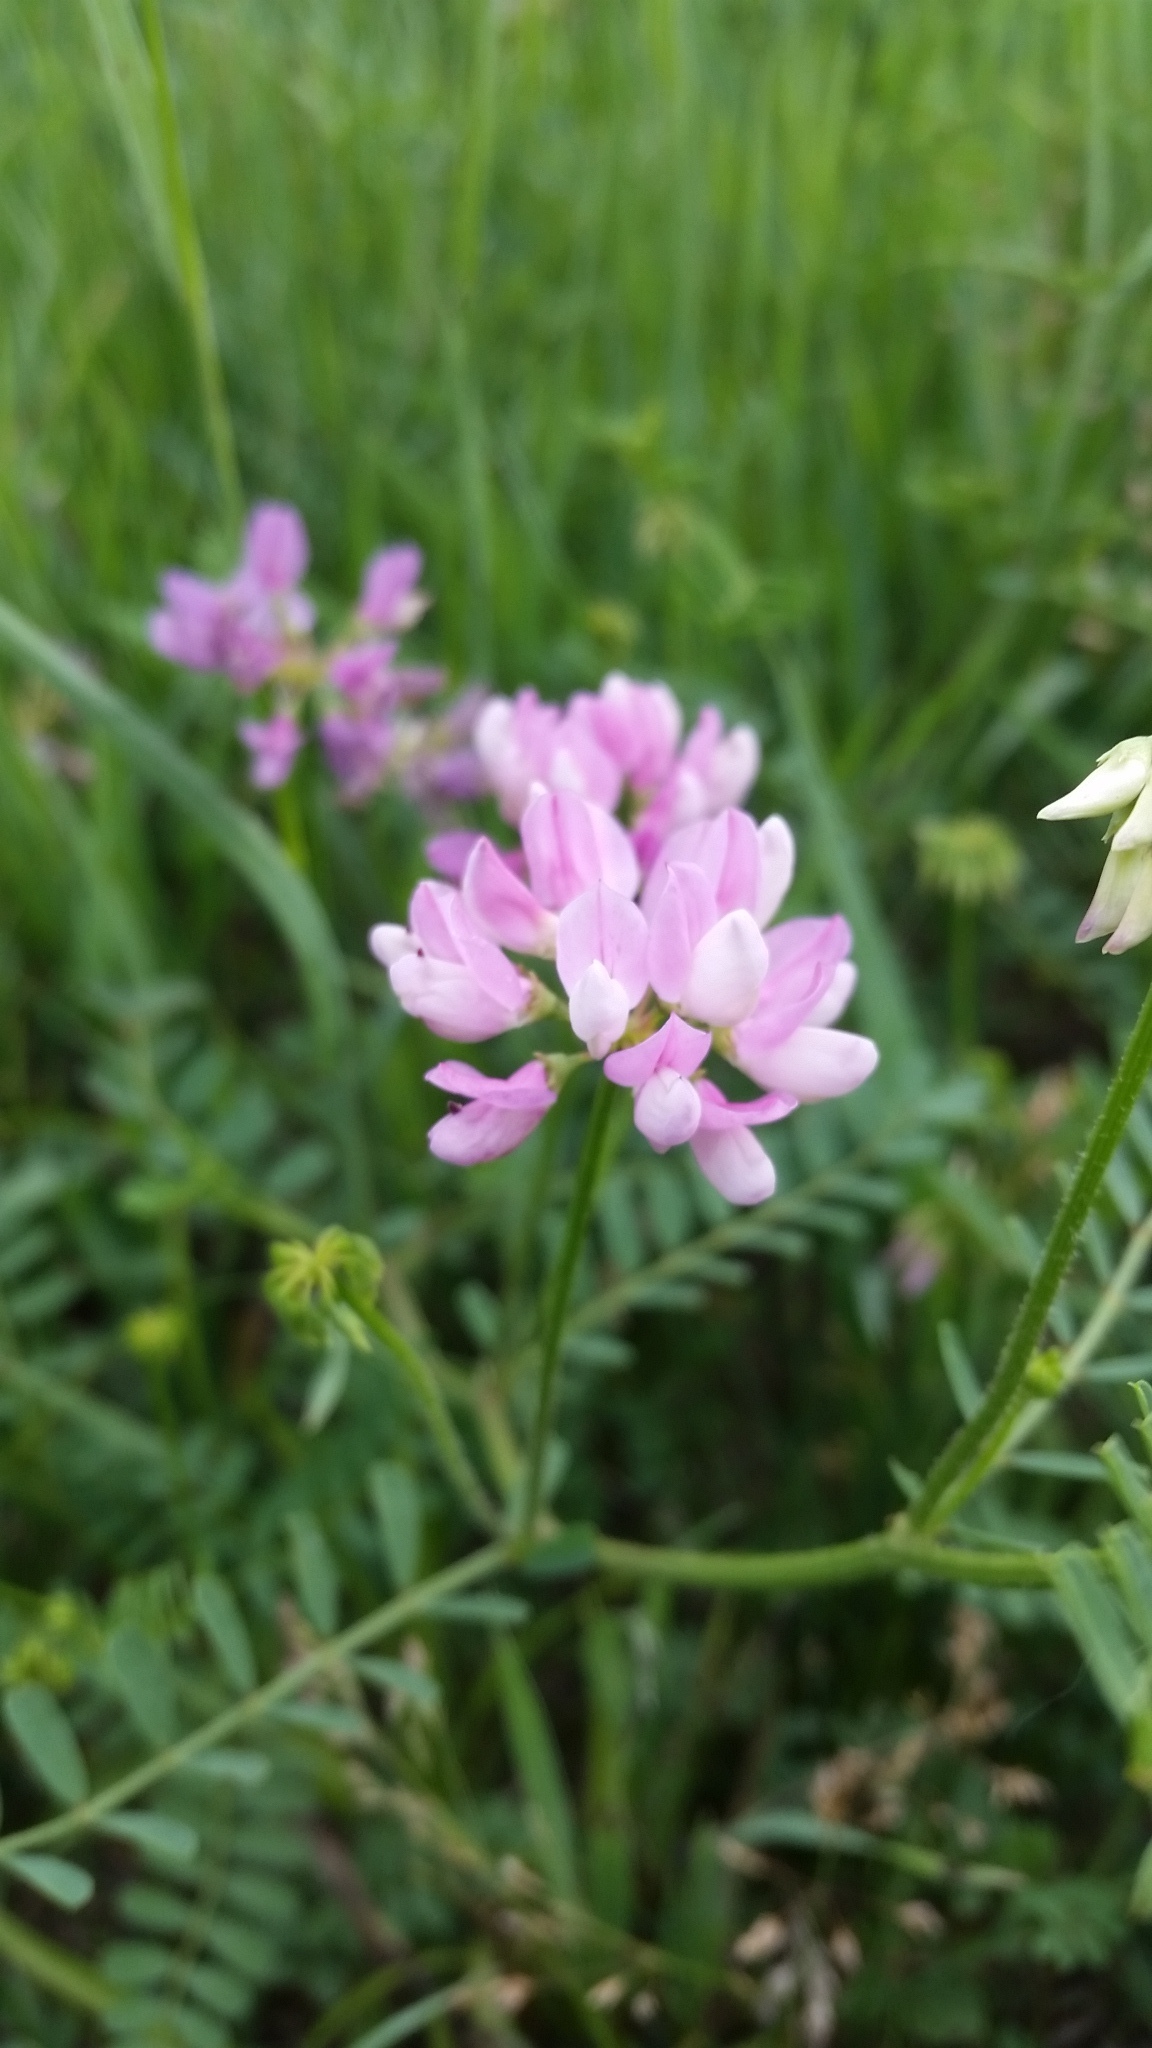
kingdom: Plantae
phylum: Tracheophyta
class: Magnoliopsida
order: Fabales
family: Fabaceae
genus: Coronilla
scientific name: Coronilla varia
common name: Crownvetch
